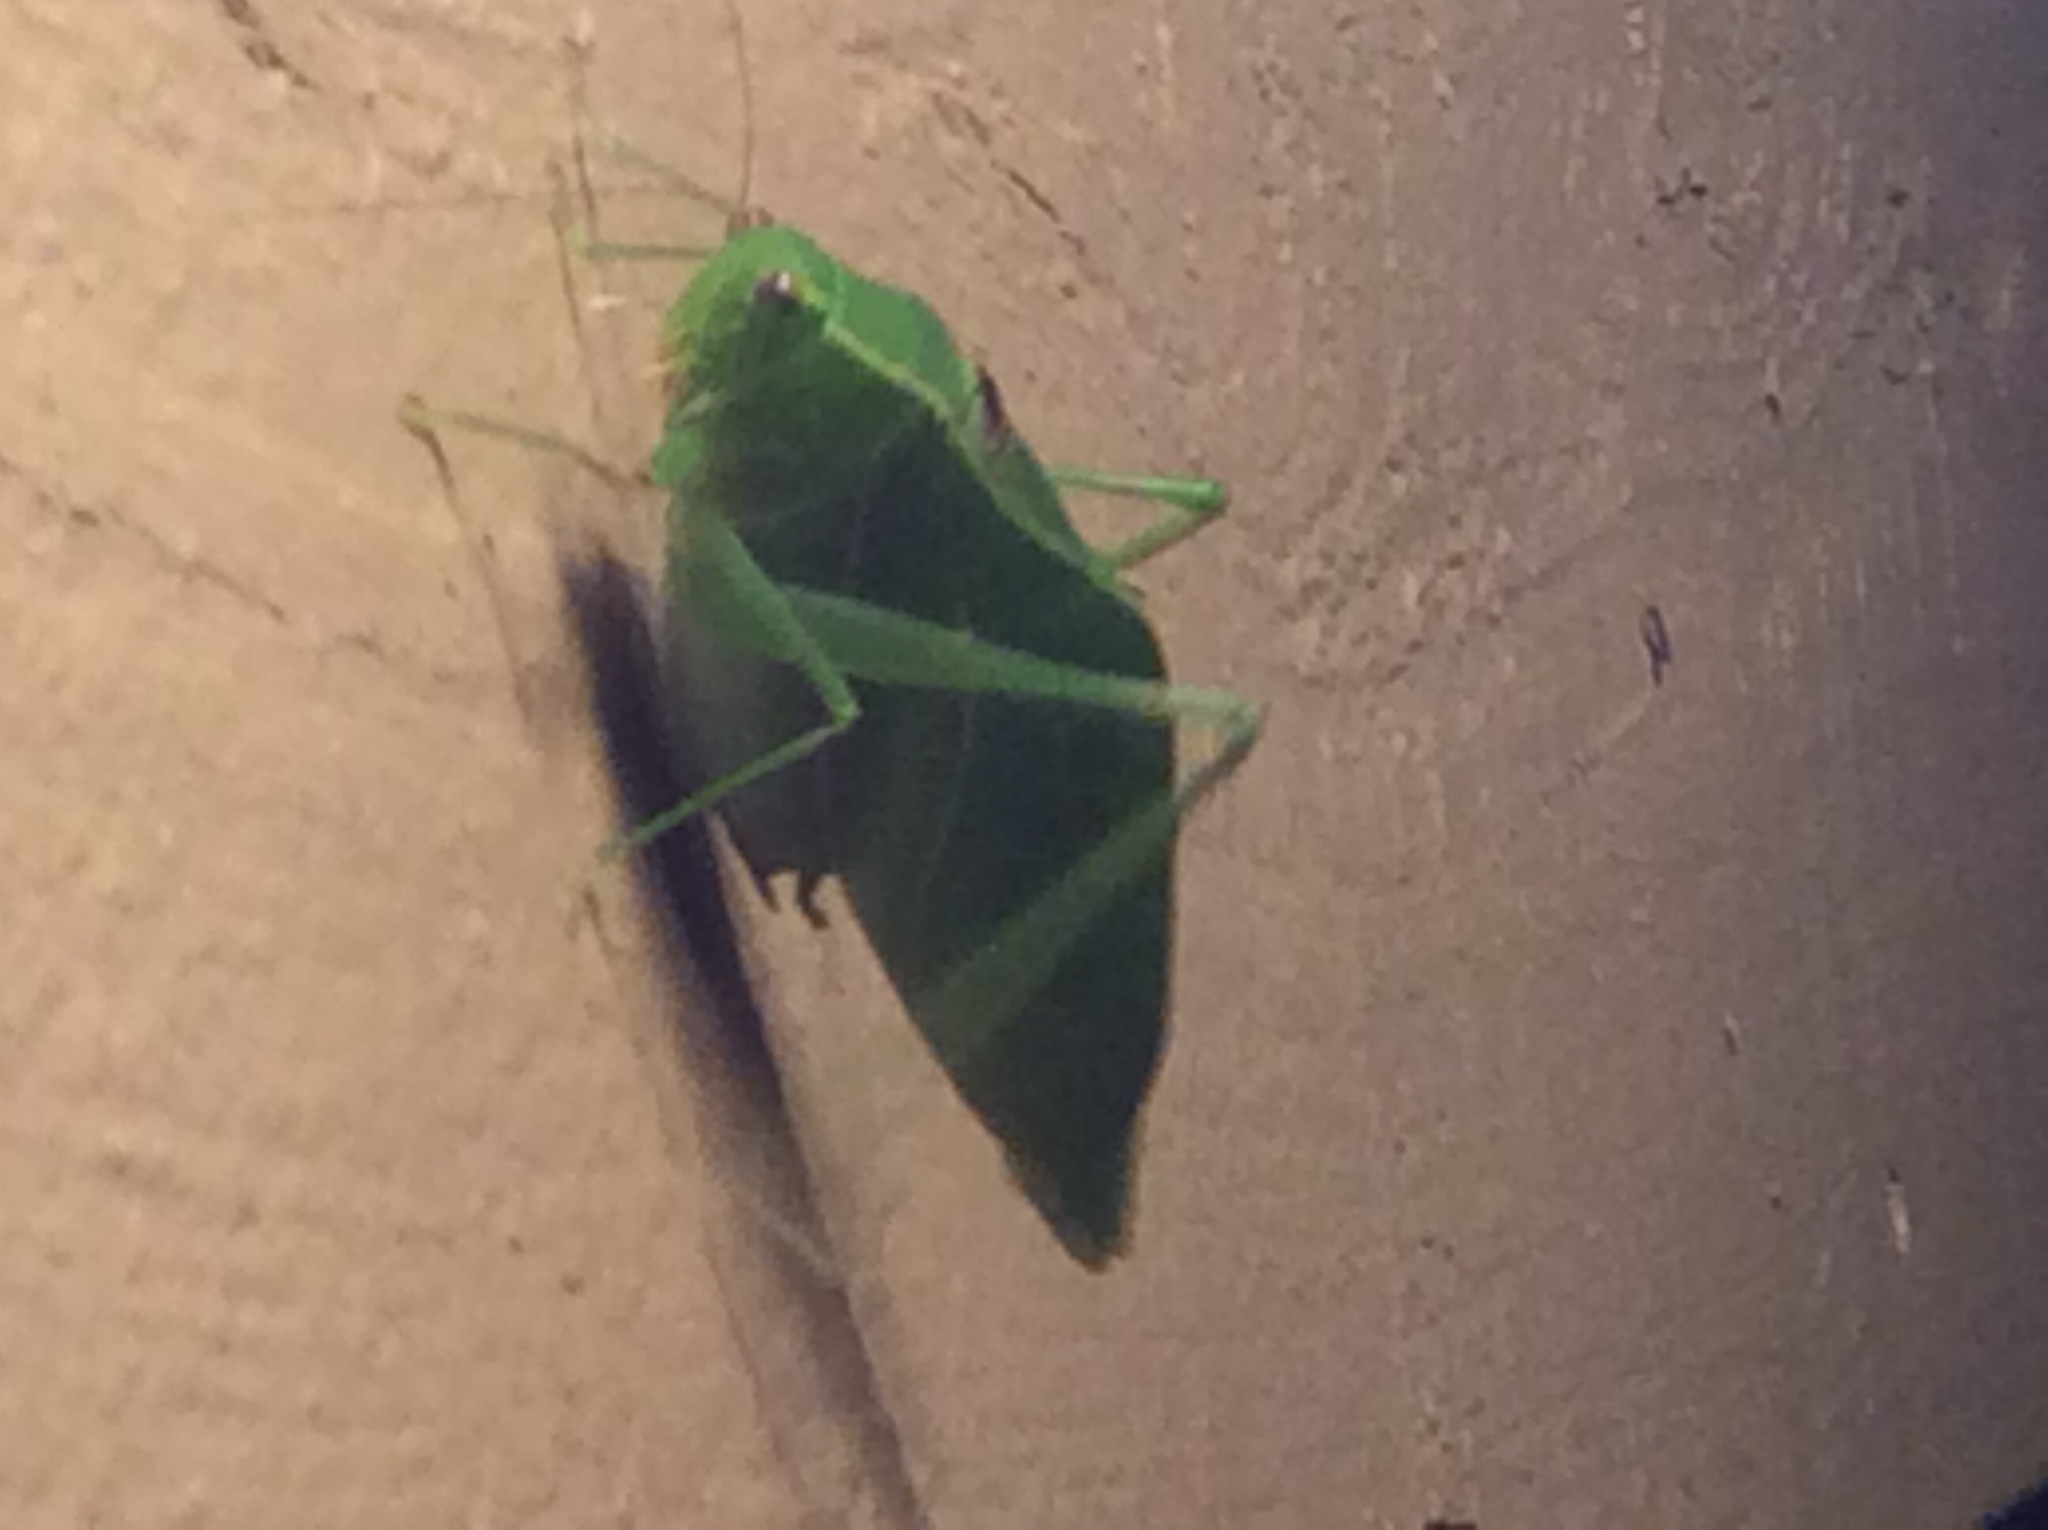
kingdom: Animalia
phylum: Arthropoda
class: Insecta
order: Orthoptera
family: Tettigoniidae
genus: Microcentrum
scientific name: Microcentrum retinerve
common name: Angular-winged katydid
